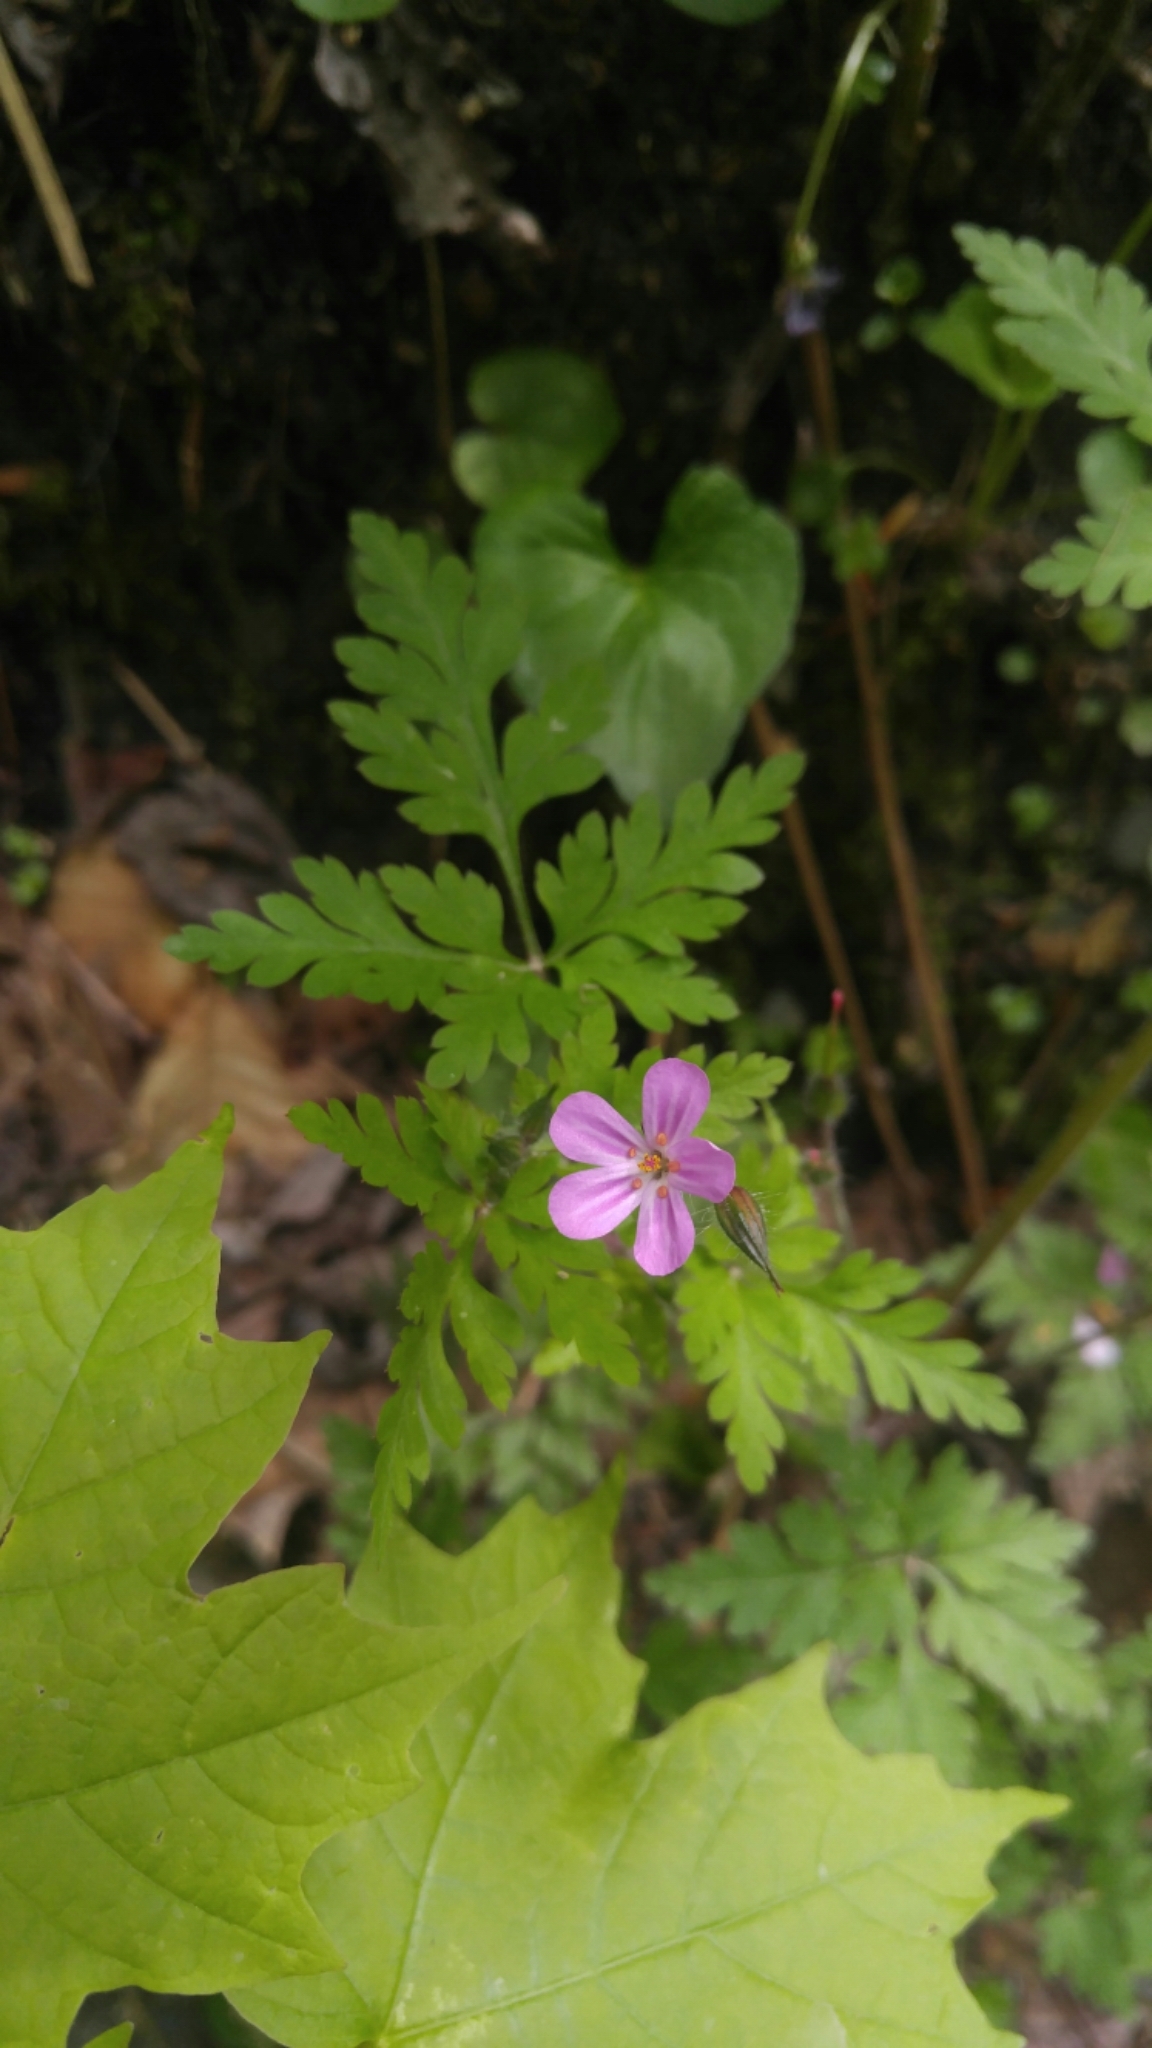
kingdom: Plantae
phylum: Tracheophyta
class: Magnoliopsida
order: Geraniales
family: Geraniaceae
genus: Geranium
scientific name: Geranium robertianum
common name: Herb-robert
